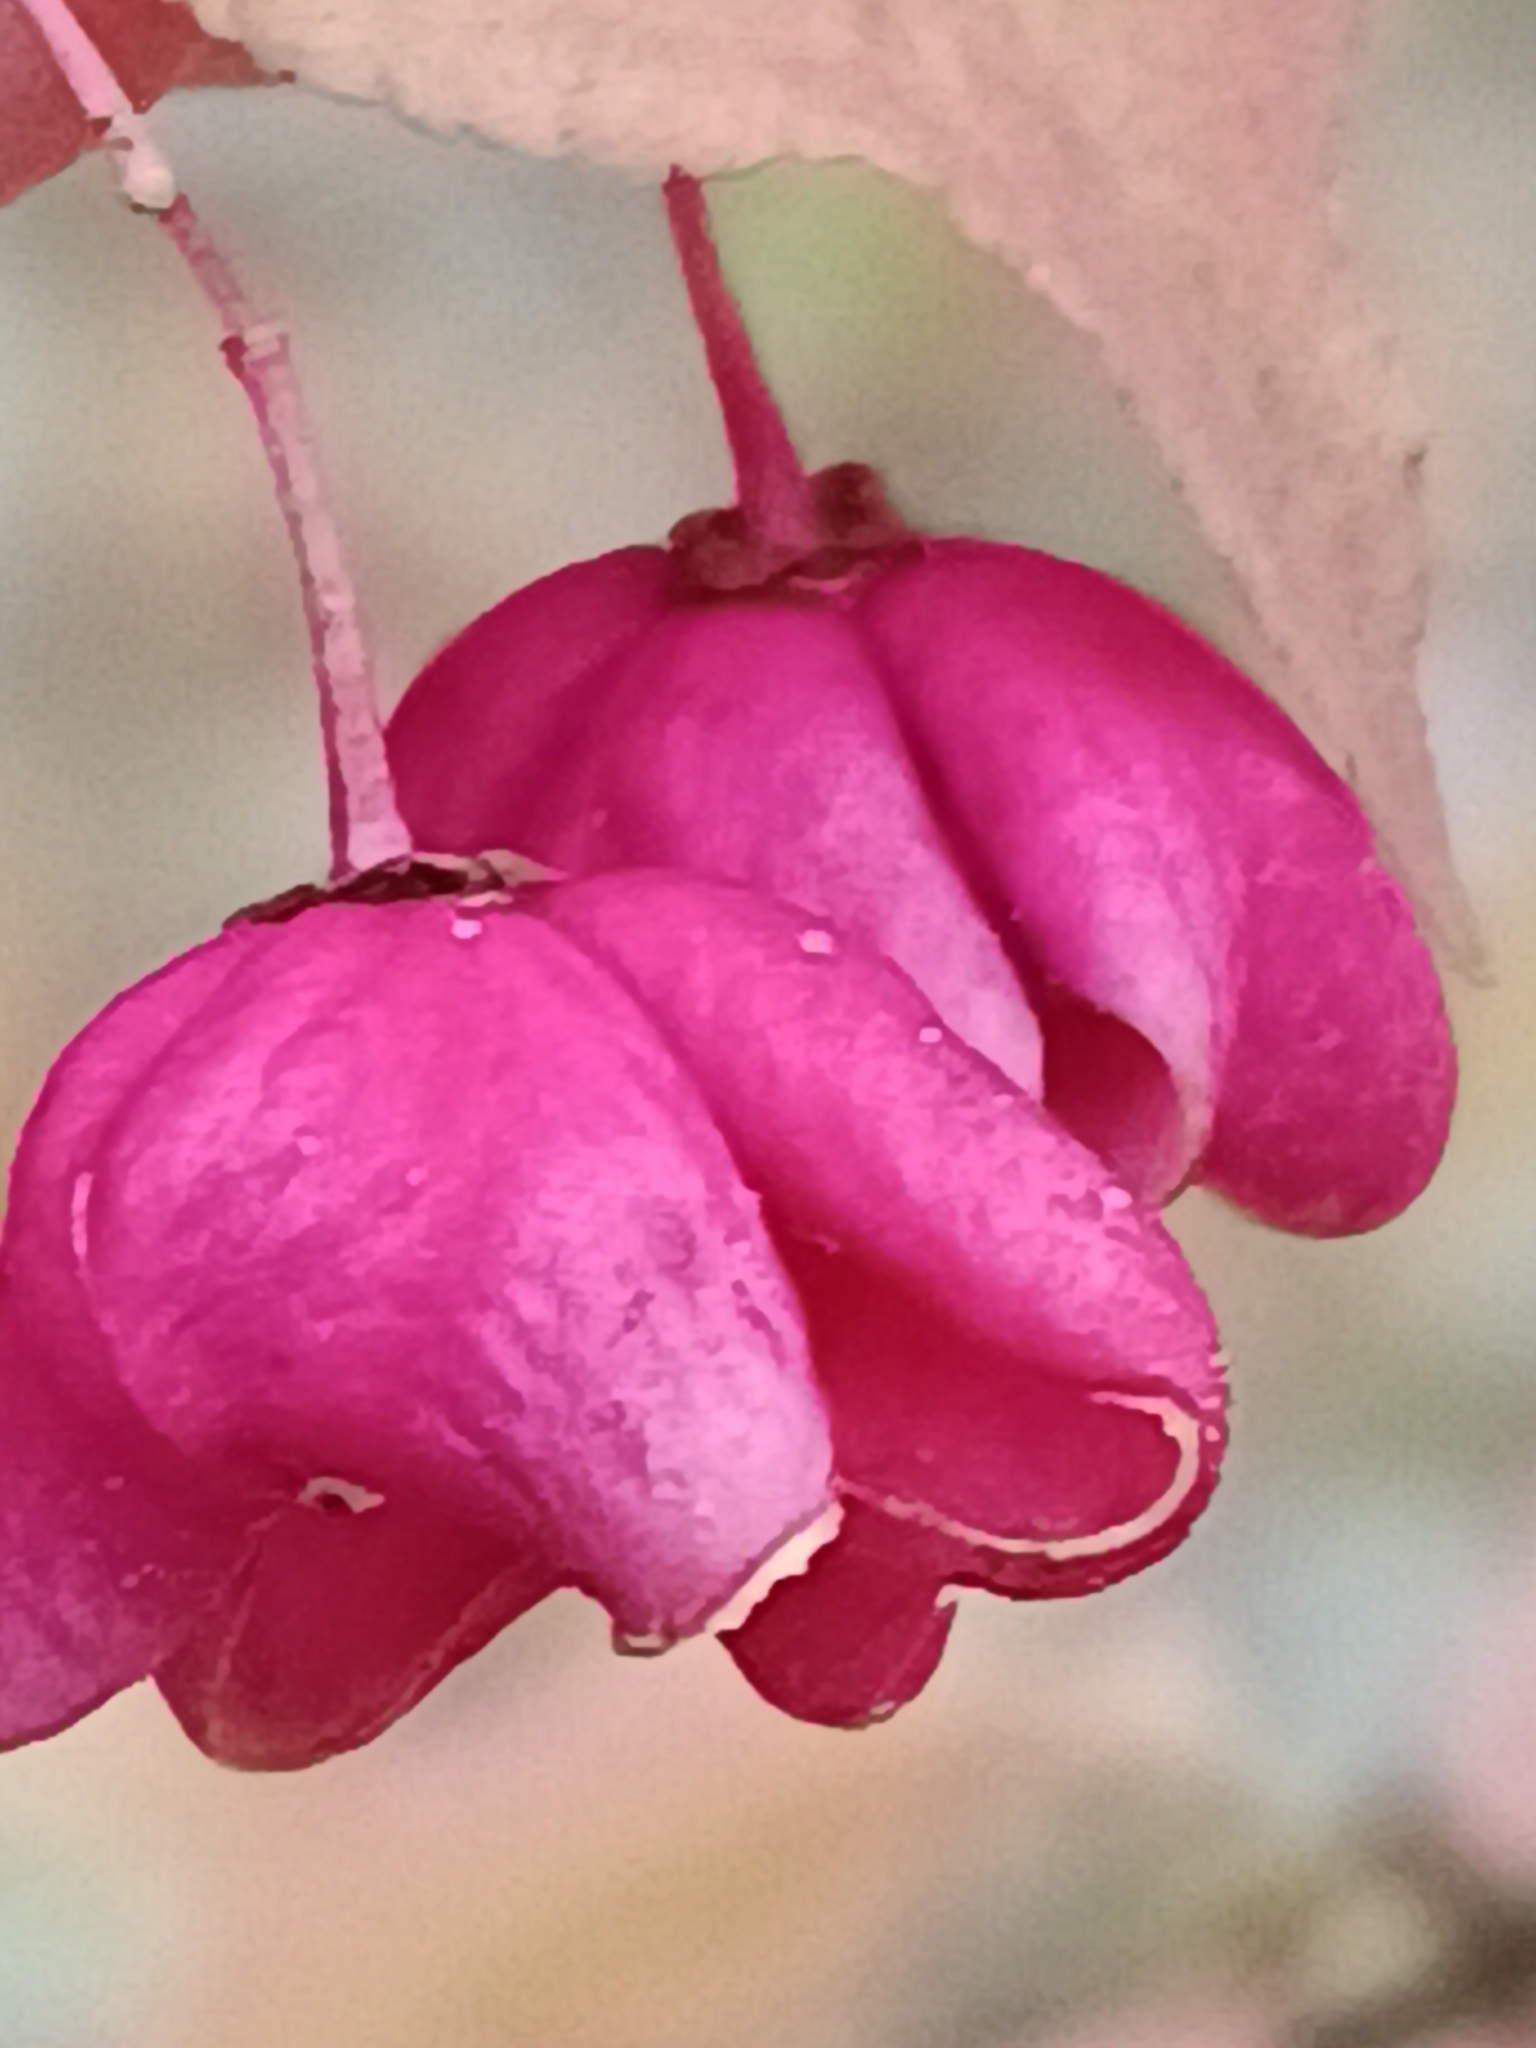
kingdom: Plantae
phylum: Tracheophyta
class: Magnoliopsida
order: Celastrales
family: Celastraceae
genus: Euonymus
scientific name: Euonymus verrucosus
